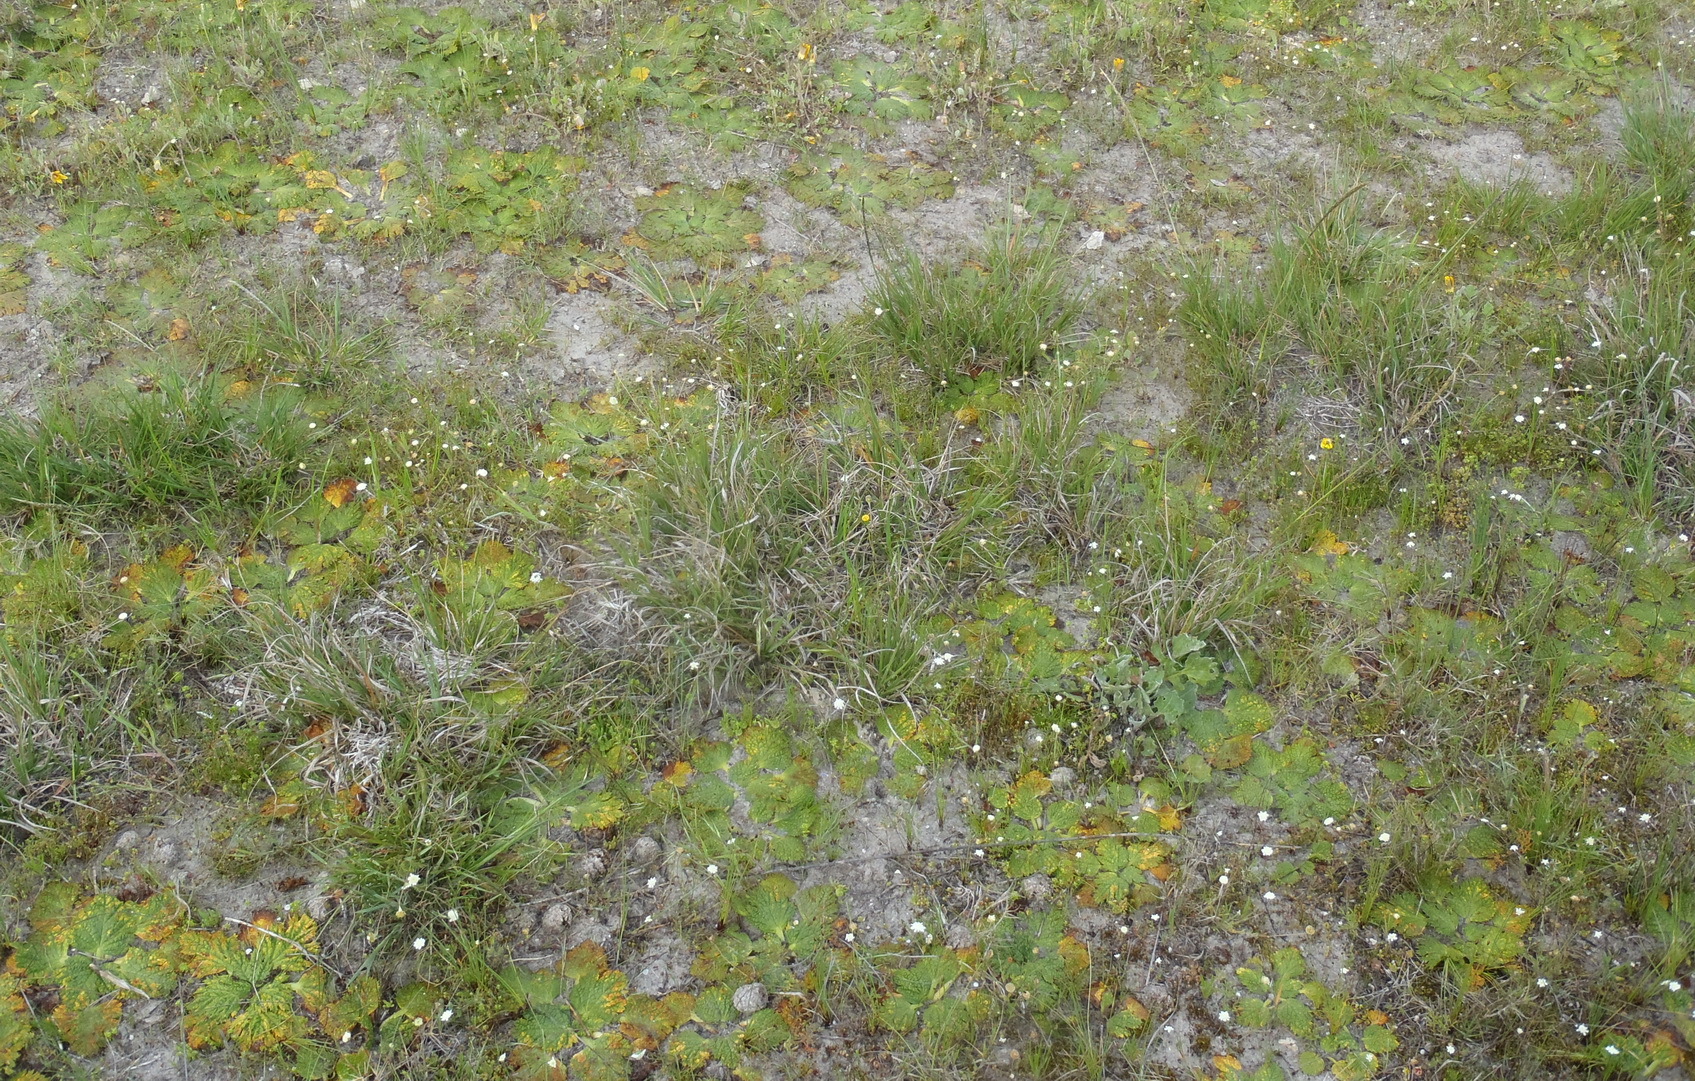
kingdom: Plantae
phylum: Tracheophyta
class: Magnoliopsida
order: Caryophyllales
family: Caryophyllaceae
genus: Silene
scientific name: Silene aethiopica
